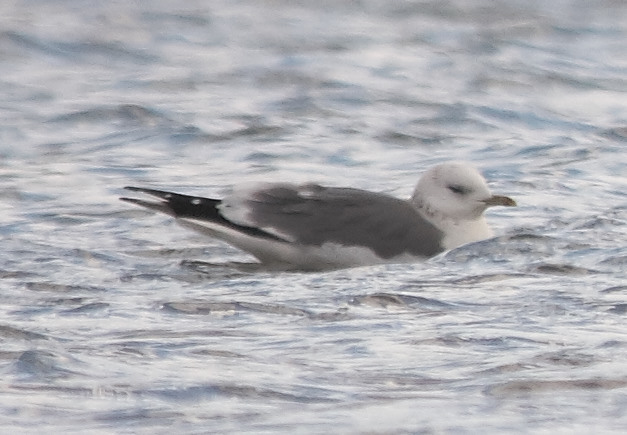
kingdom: Animalia
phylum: Chordata
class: Aves
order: Charadriiformes
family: Laridae
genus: Larus
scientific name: Larus canus
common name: Mew gull
